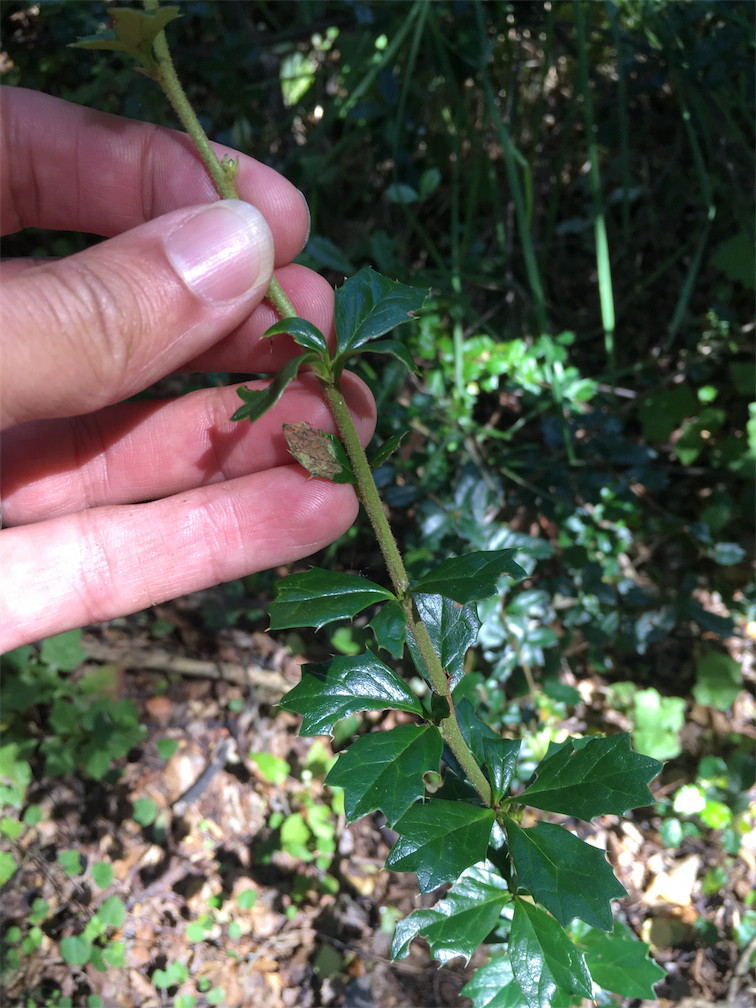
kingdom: Plantae
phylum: Tracheophyta
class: Magnoliopsida
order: Ranunculales
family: Berberidaceae
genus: Berberis
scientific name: Berberis darwinii
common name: Darwin's barberry
